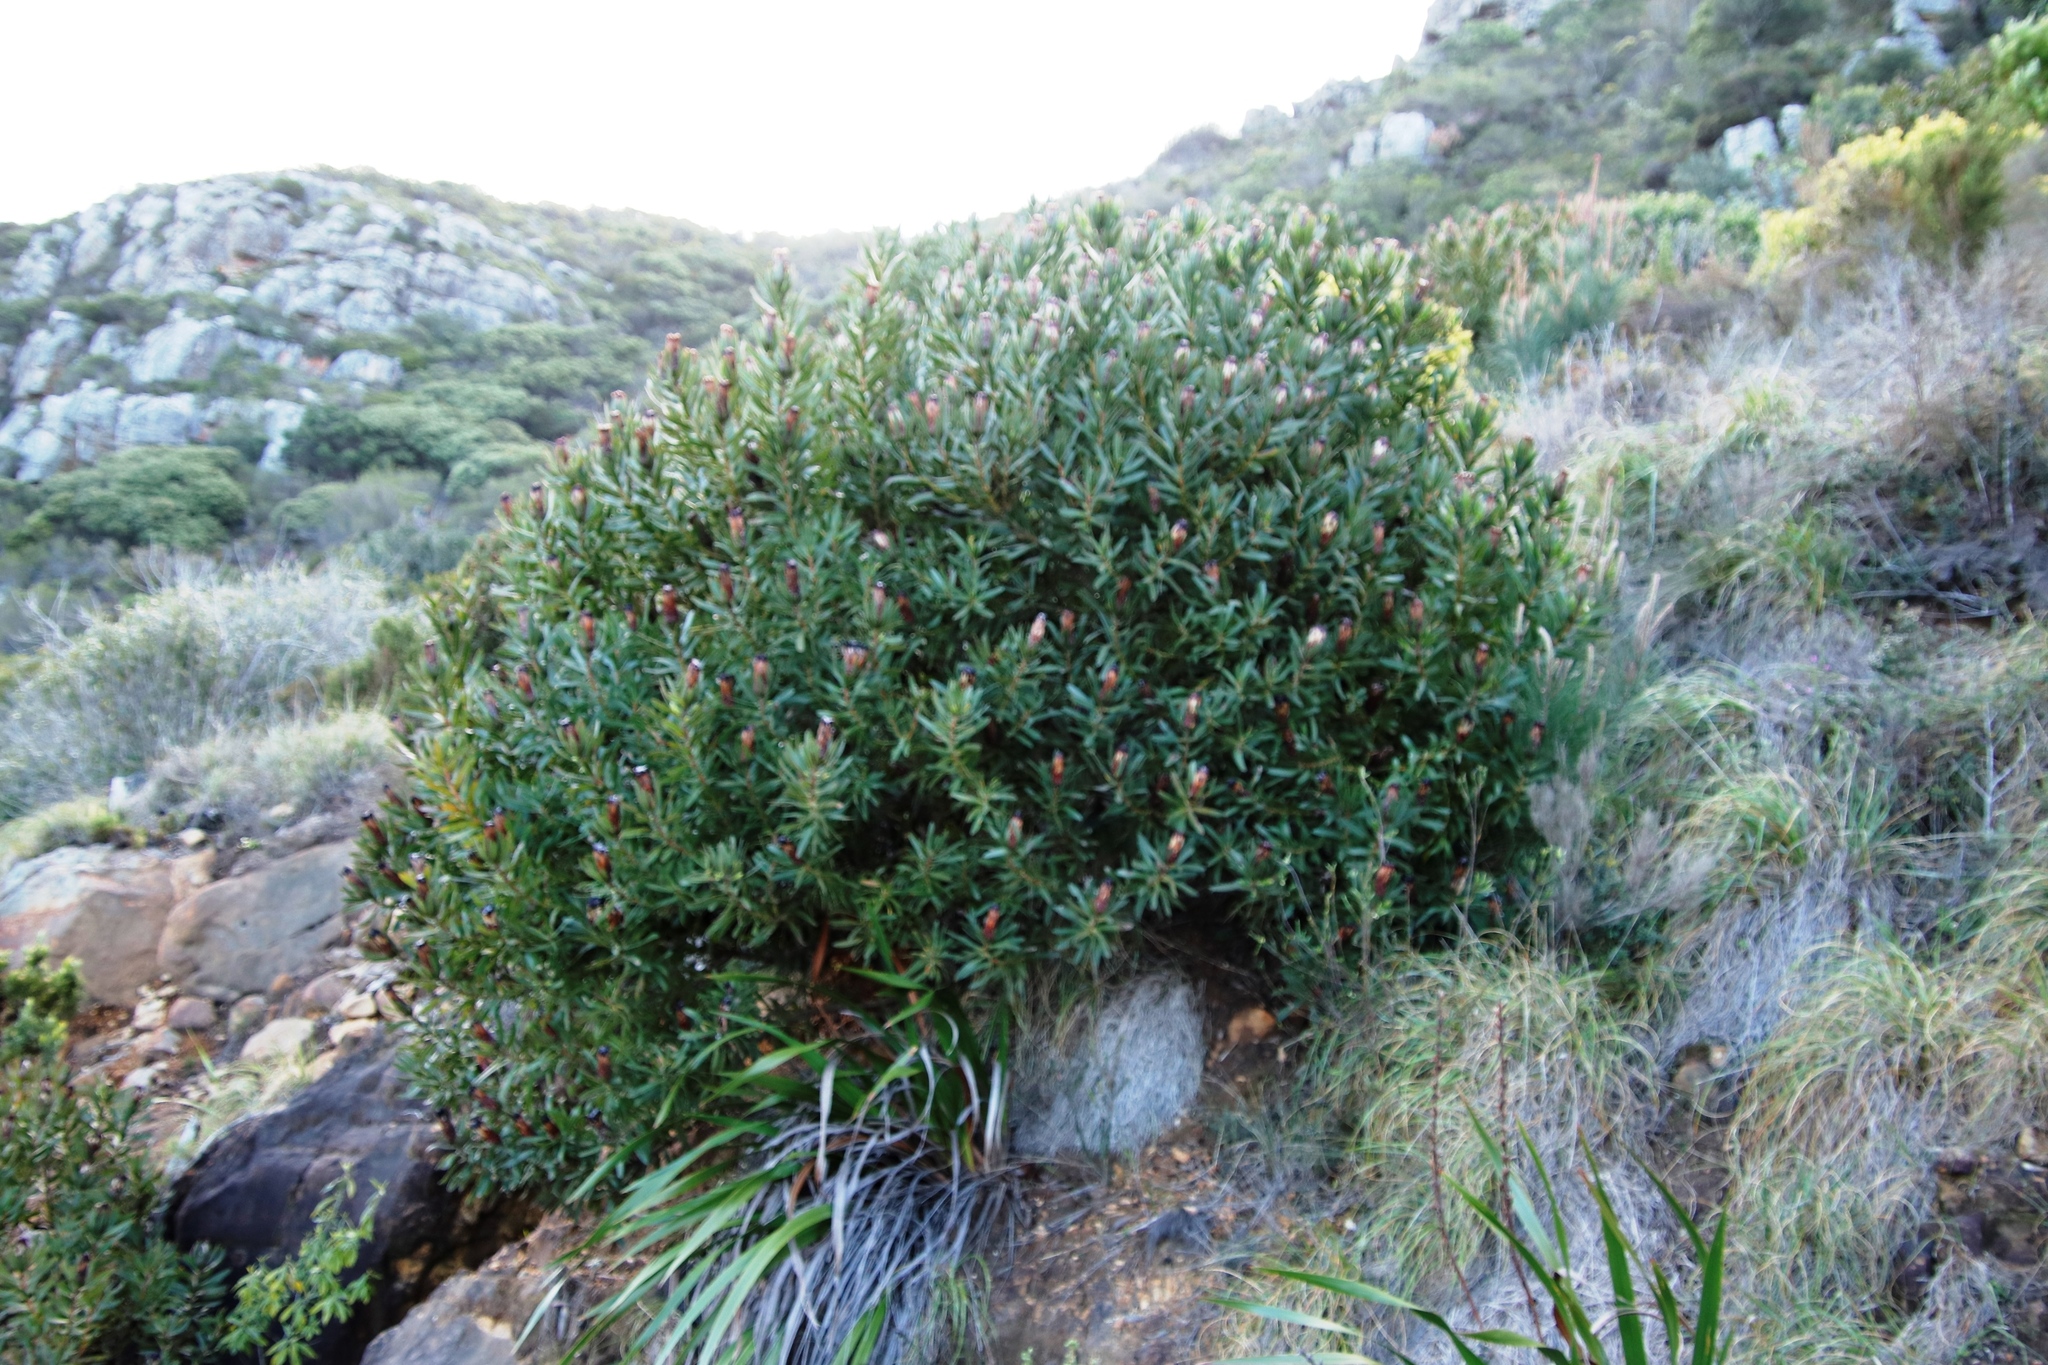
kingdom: Plantae
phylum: Tracheophyta
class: Magnoliopsida
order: Proteales
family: Proteaceae
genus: Protea
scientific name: Protea lepidocarpodendron
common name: Black-bearded protea
